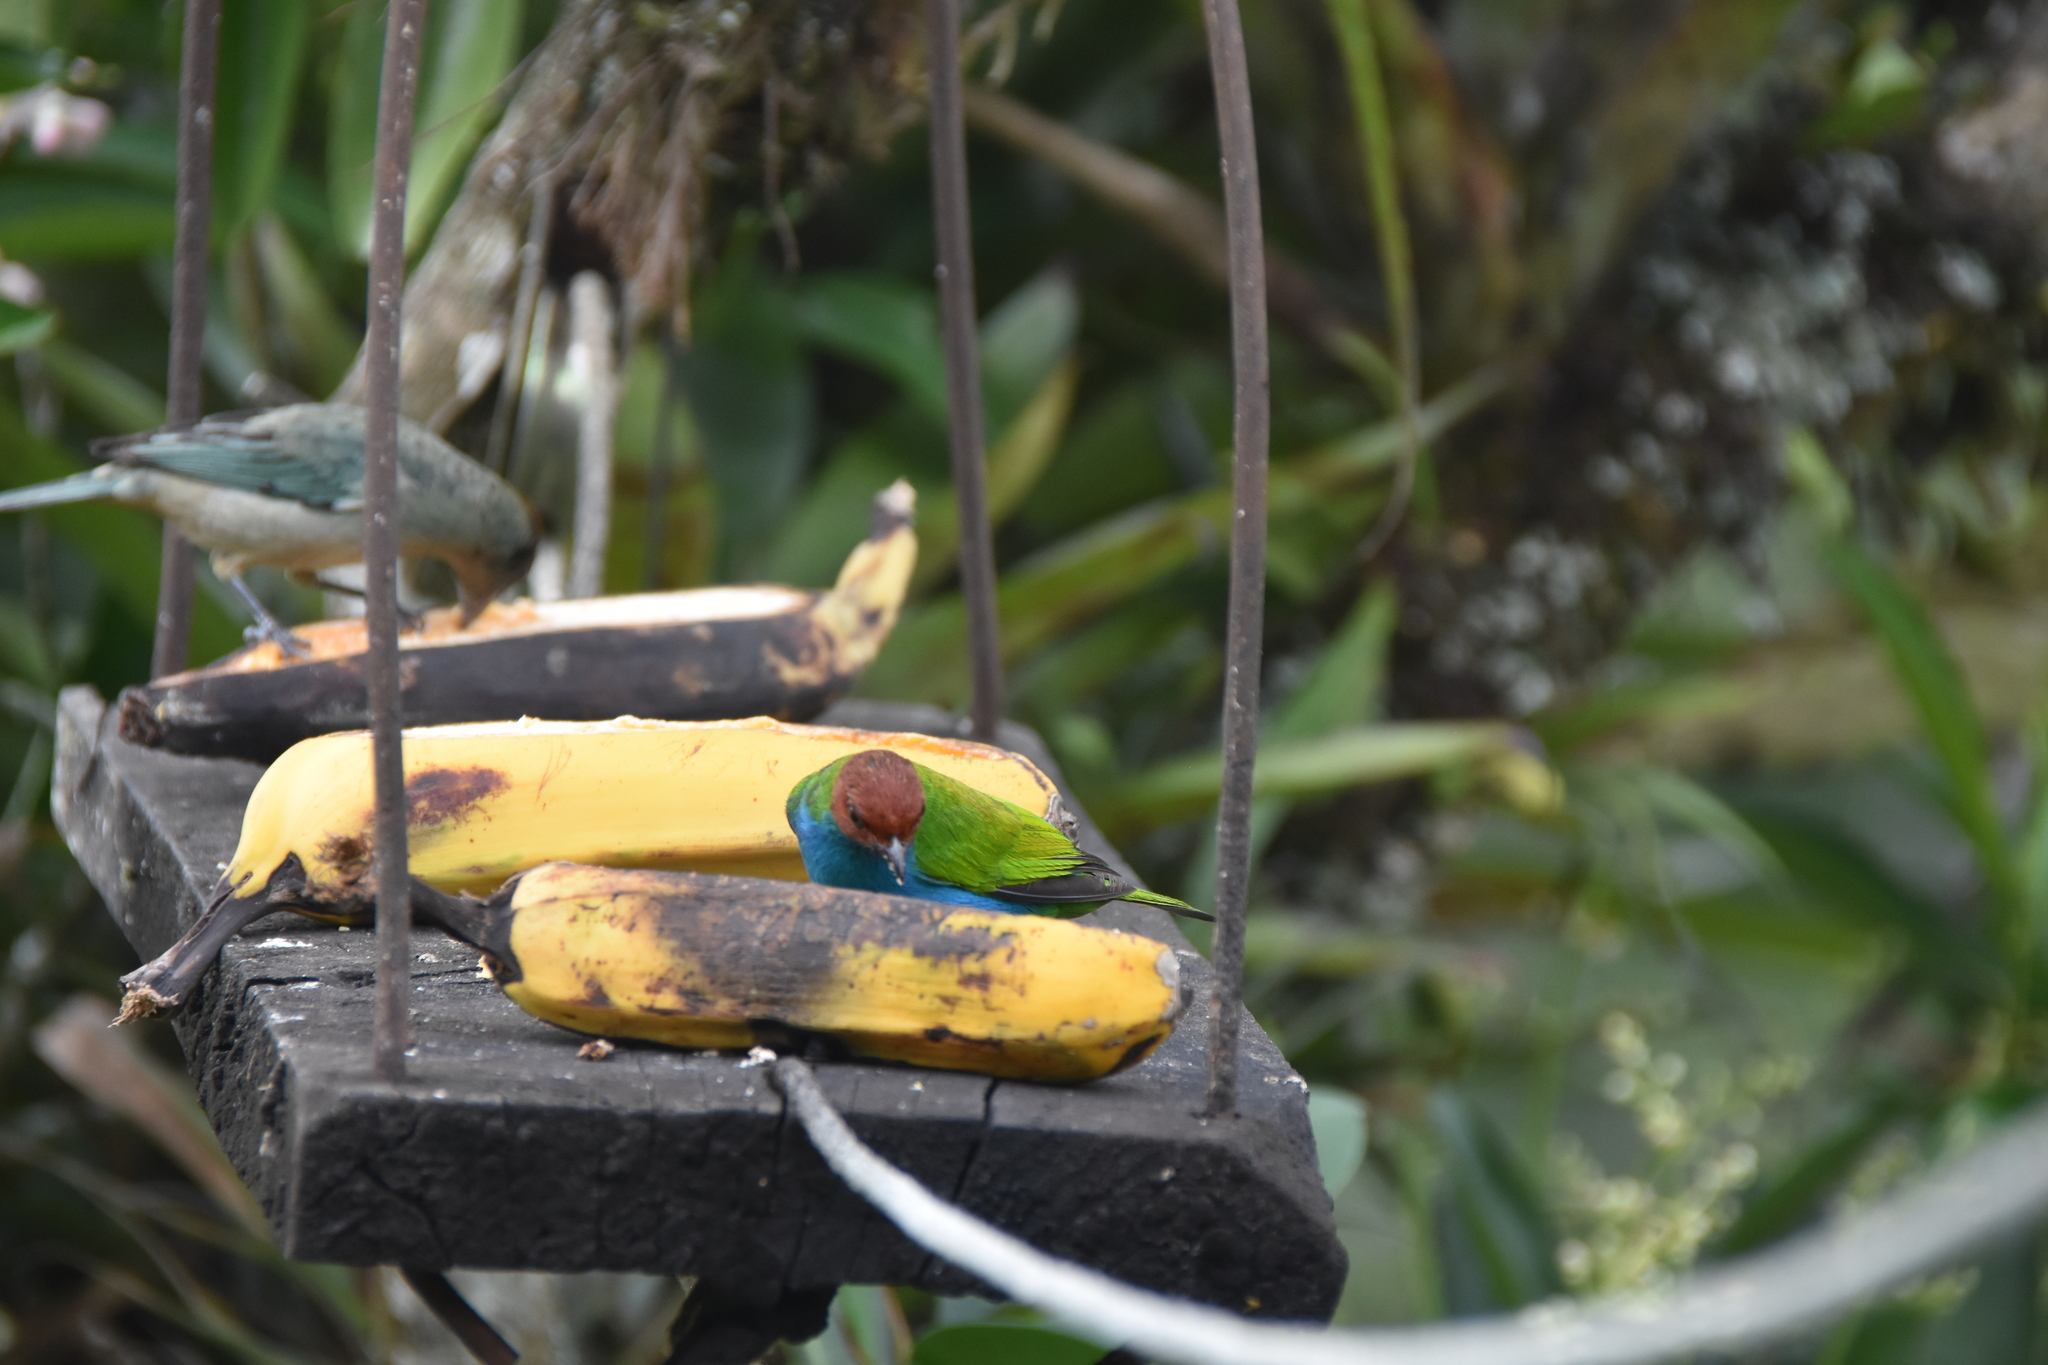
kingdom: Animalia
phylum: Chordata
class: Aves
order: Passeriformes
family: Thraupidae
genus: Tangara
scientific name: Tangara gyrola
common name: Bay-headed tanager
